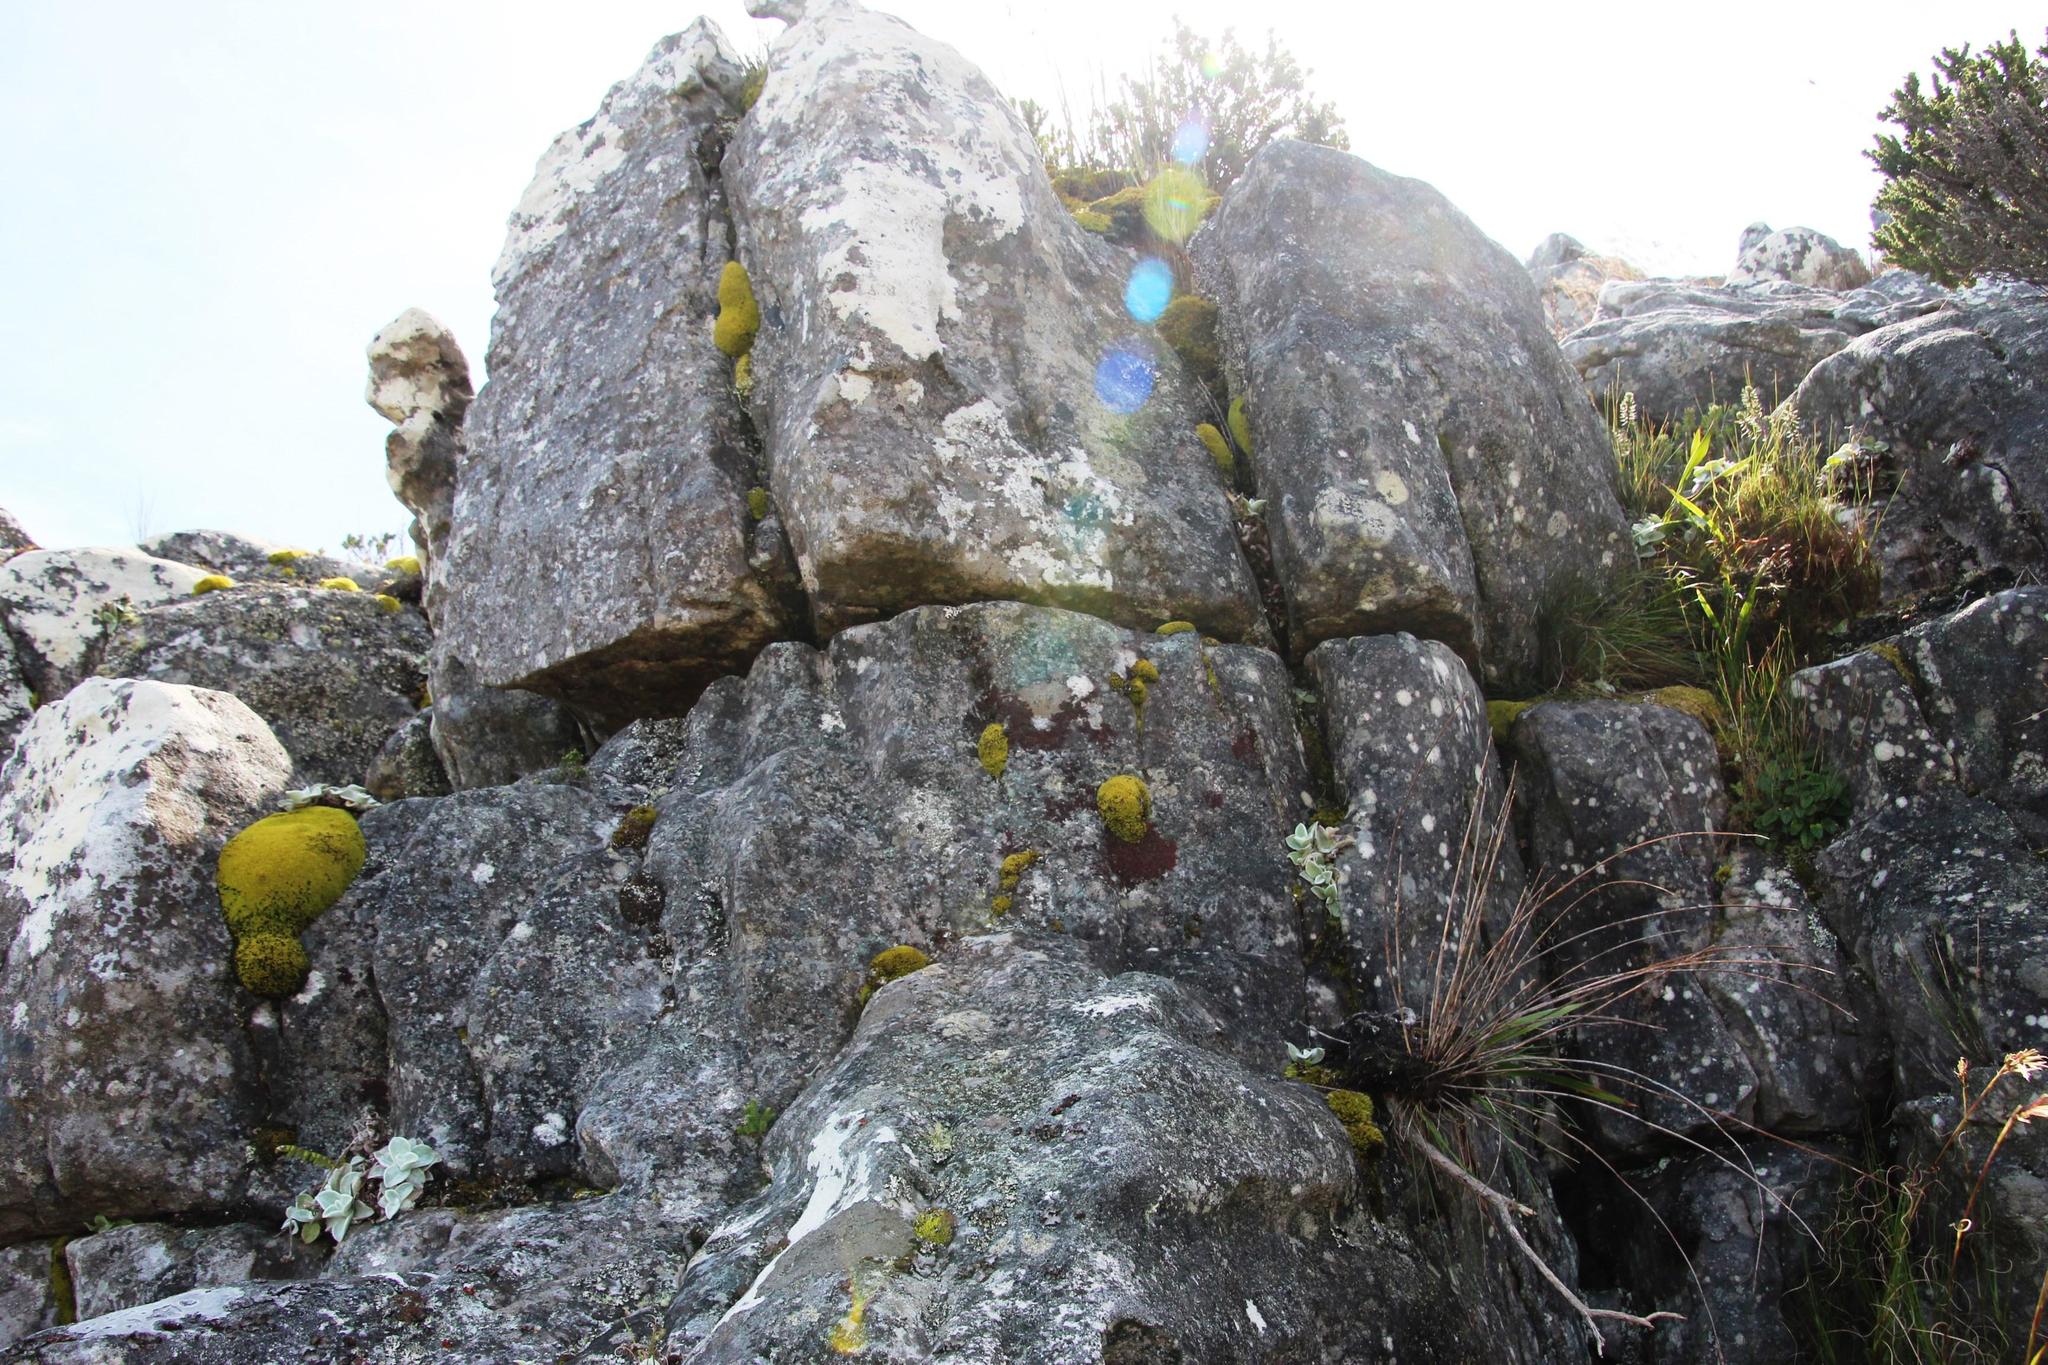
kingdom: Plantae
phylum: Bryophyta
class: Bryopsida
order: Dicranales
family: Hypodontiaceae
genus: Hypodontium
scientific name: Hypodontium pomiforme
